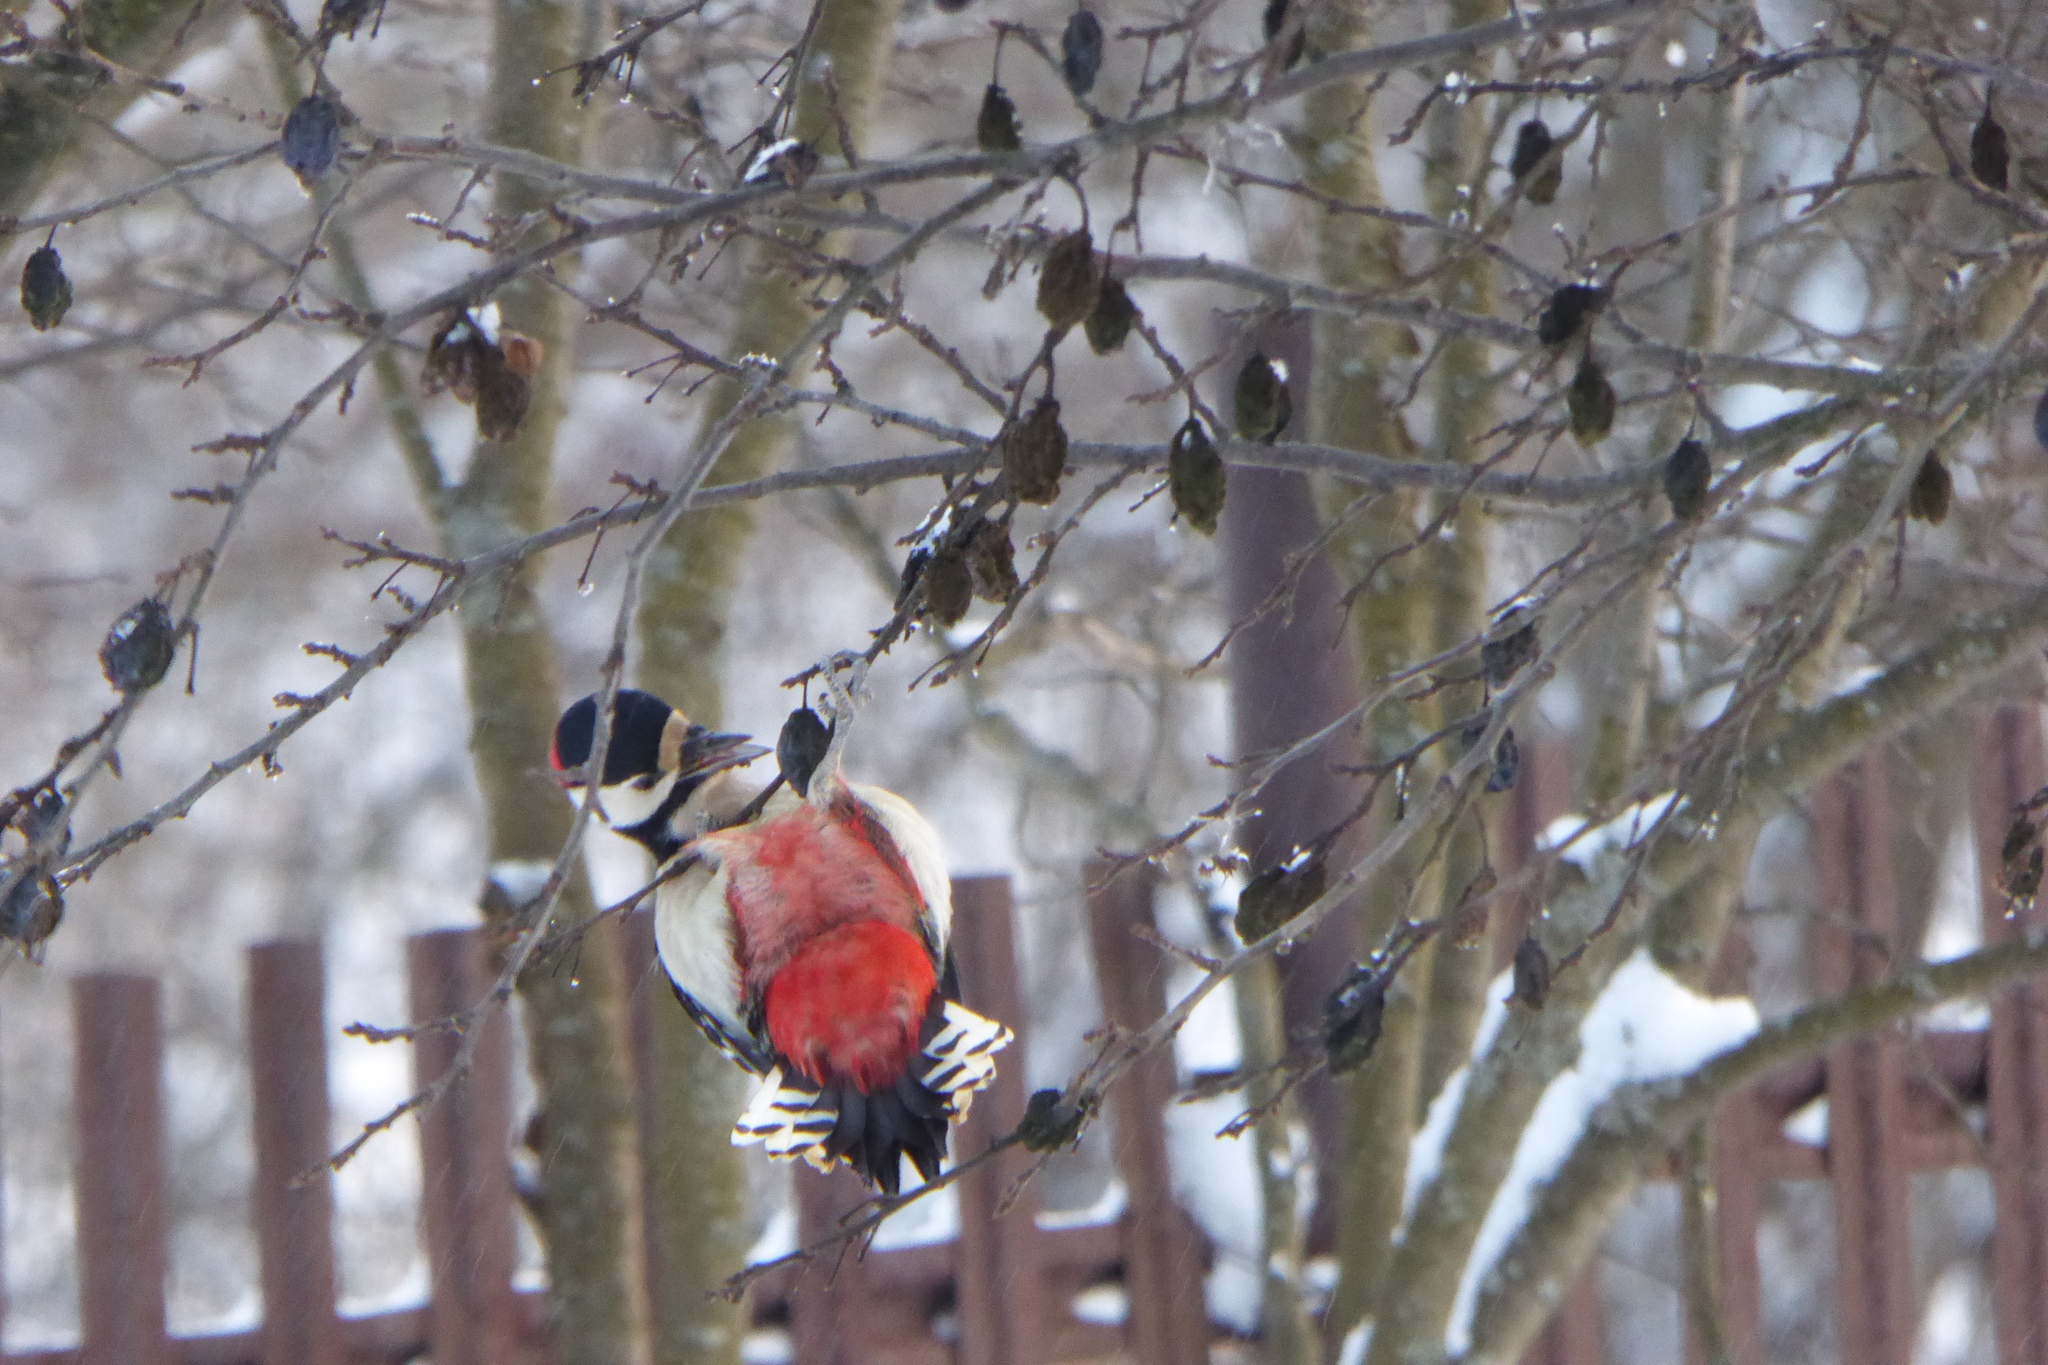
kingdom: Animalia
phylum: Chordata
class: Aves
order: Piciformes
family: Picidae
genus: Dendrocopos
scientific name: Dendrocopos major
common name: Great spotted woodpecker
